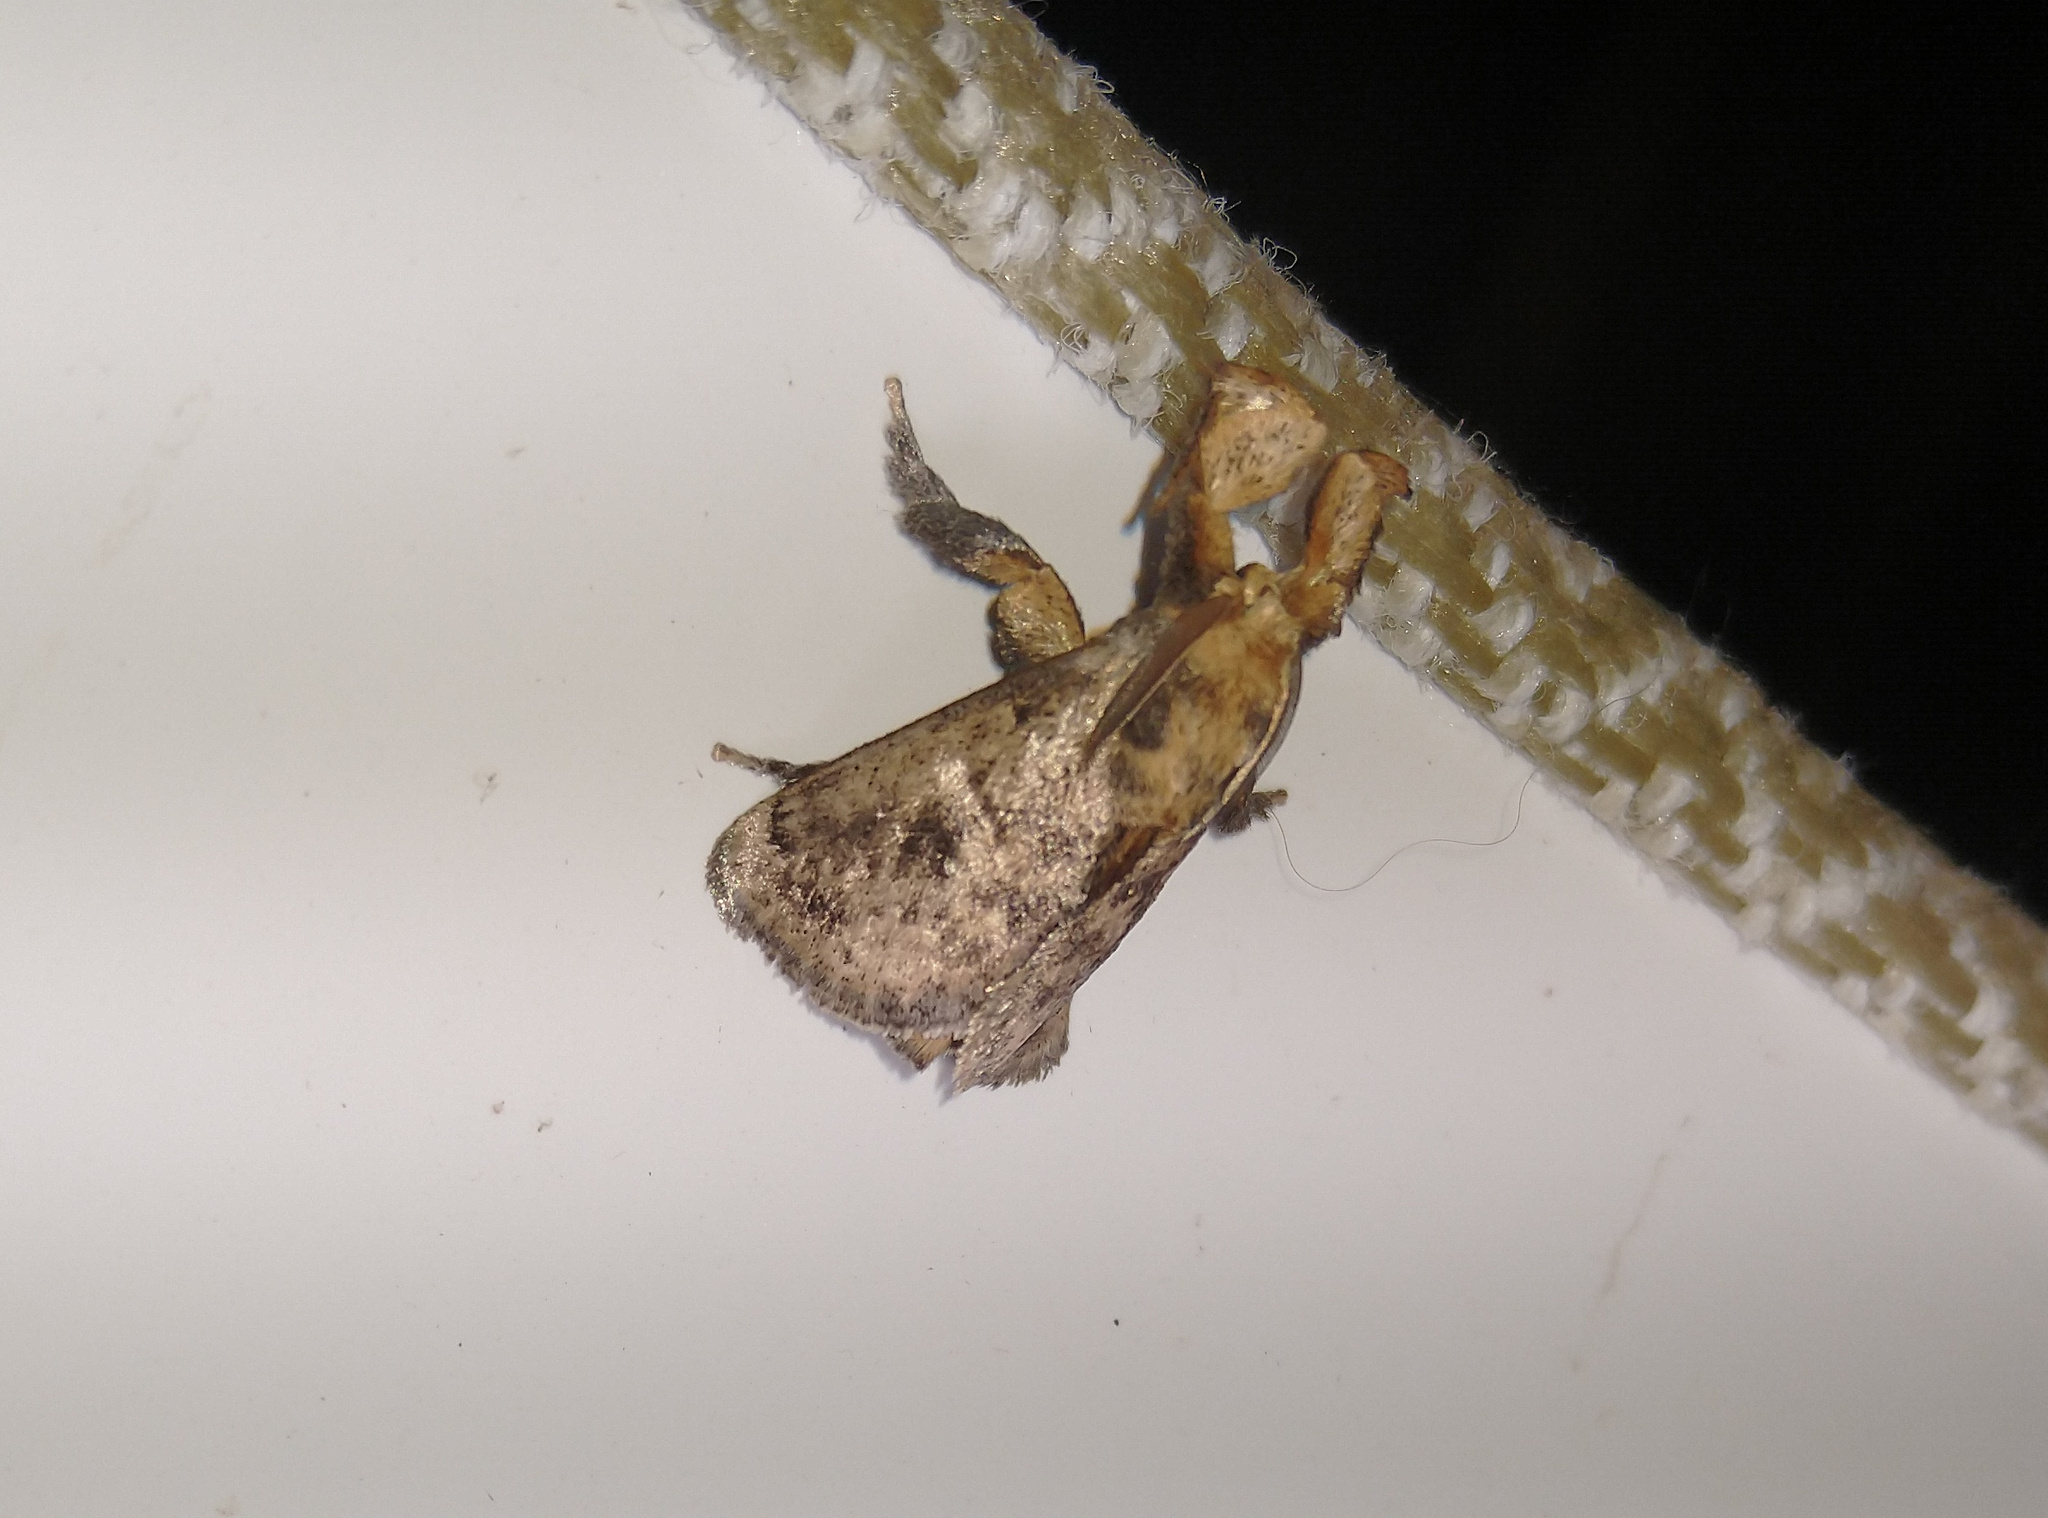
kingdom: Animalia
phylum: Arthropoda
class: Insecta
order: Lepidoptera
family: Limacodidae
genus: Perola
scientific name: Perola subpunctata
